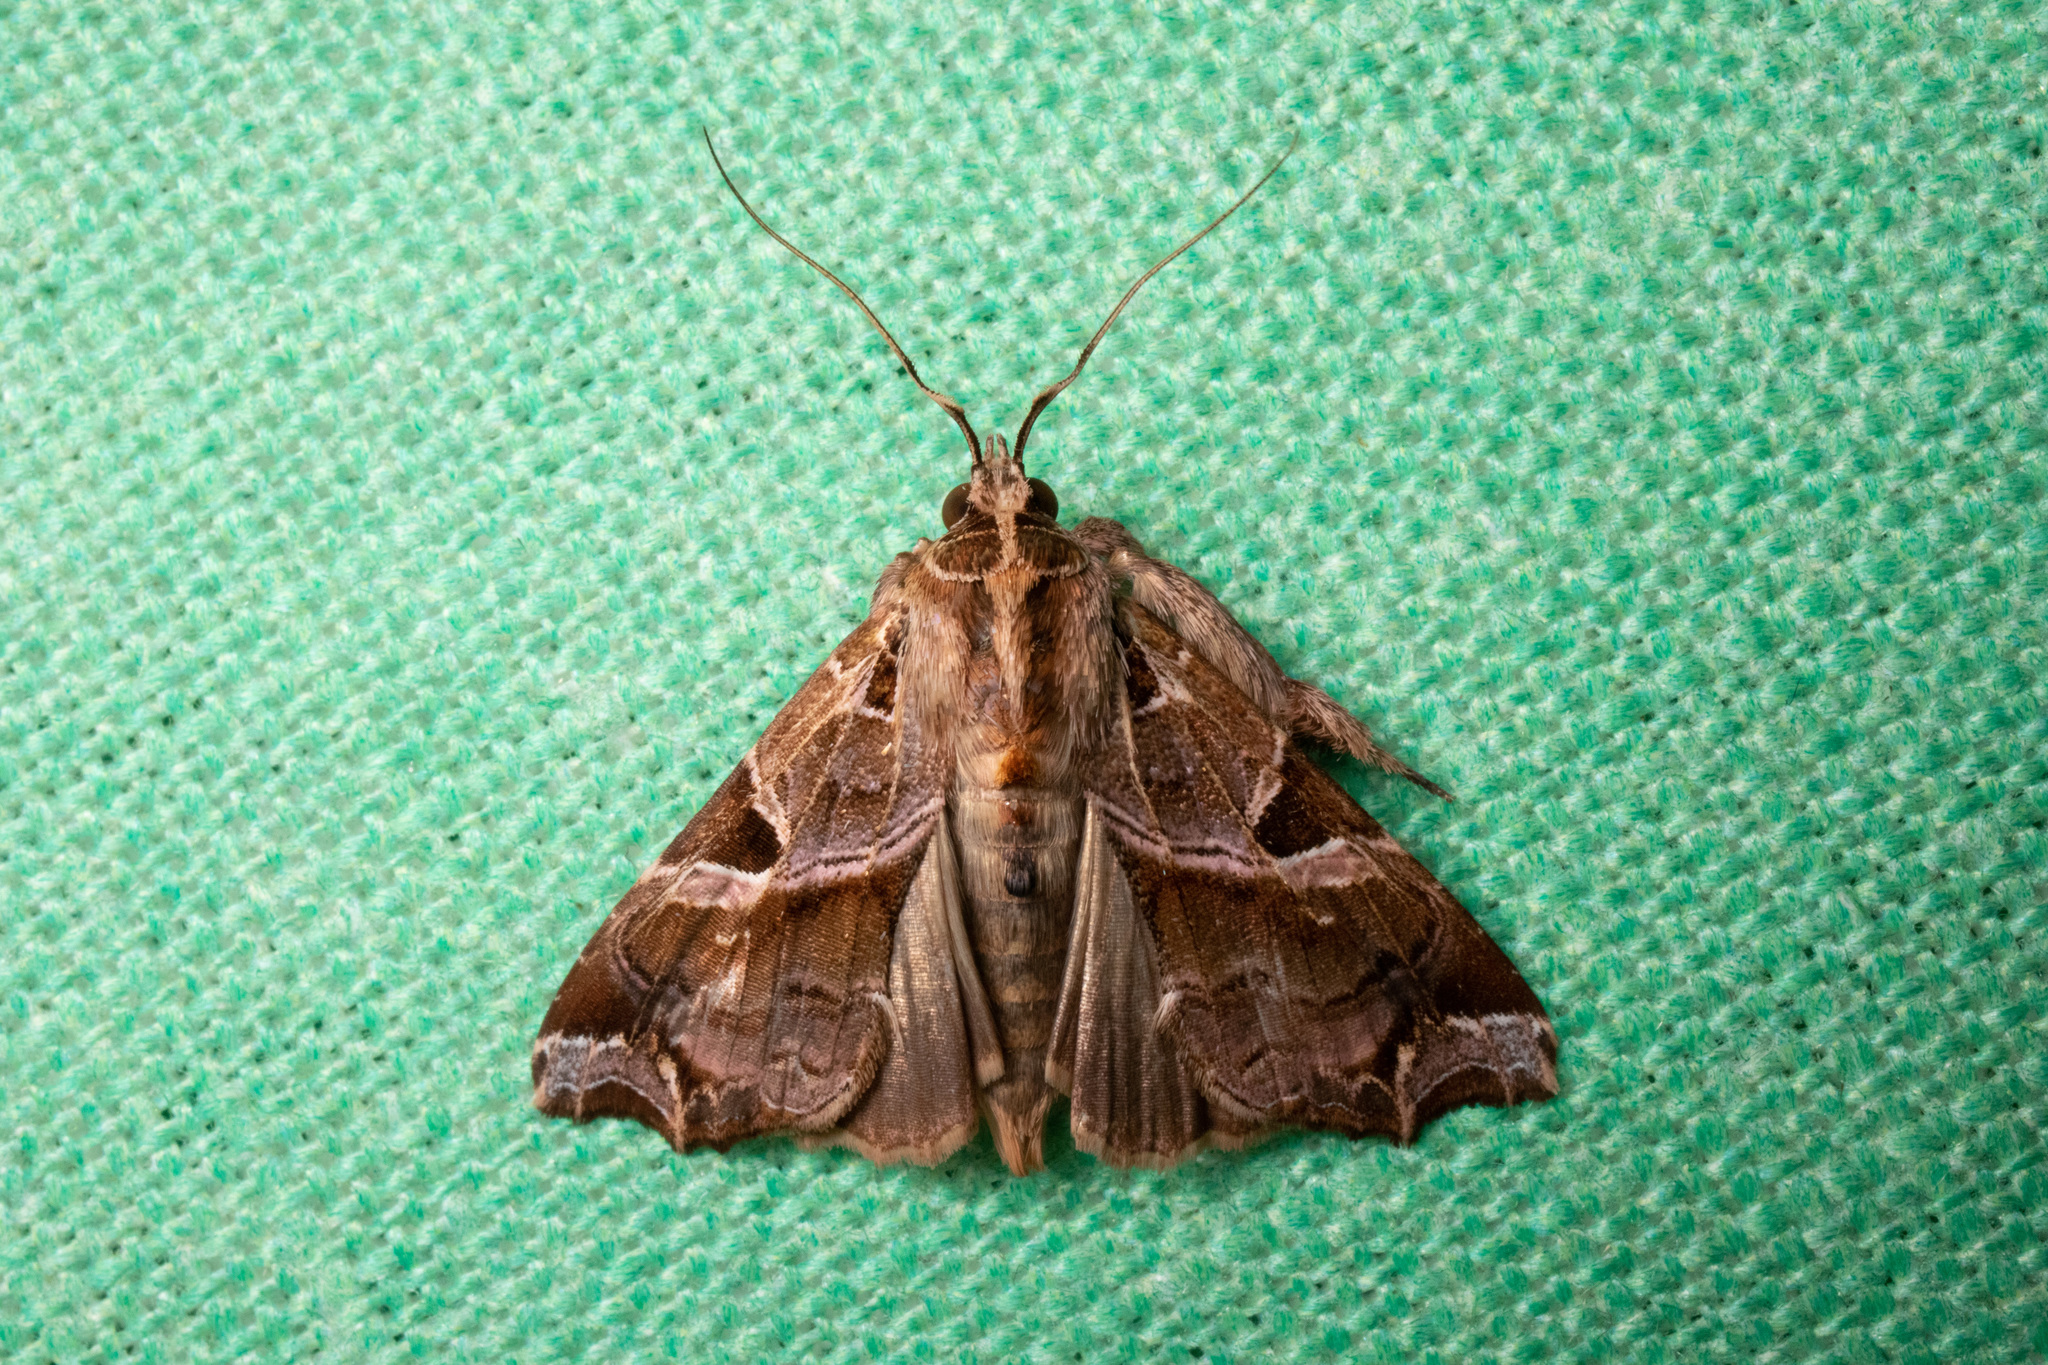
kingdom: Animalia
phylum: Arthropoda
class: Insecta
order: Lepidoptera
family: Noctuidae
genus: Callopistria
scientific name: Callopistria floridensis
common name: Florida fern moth
